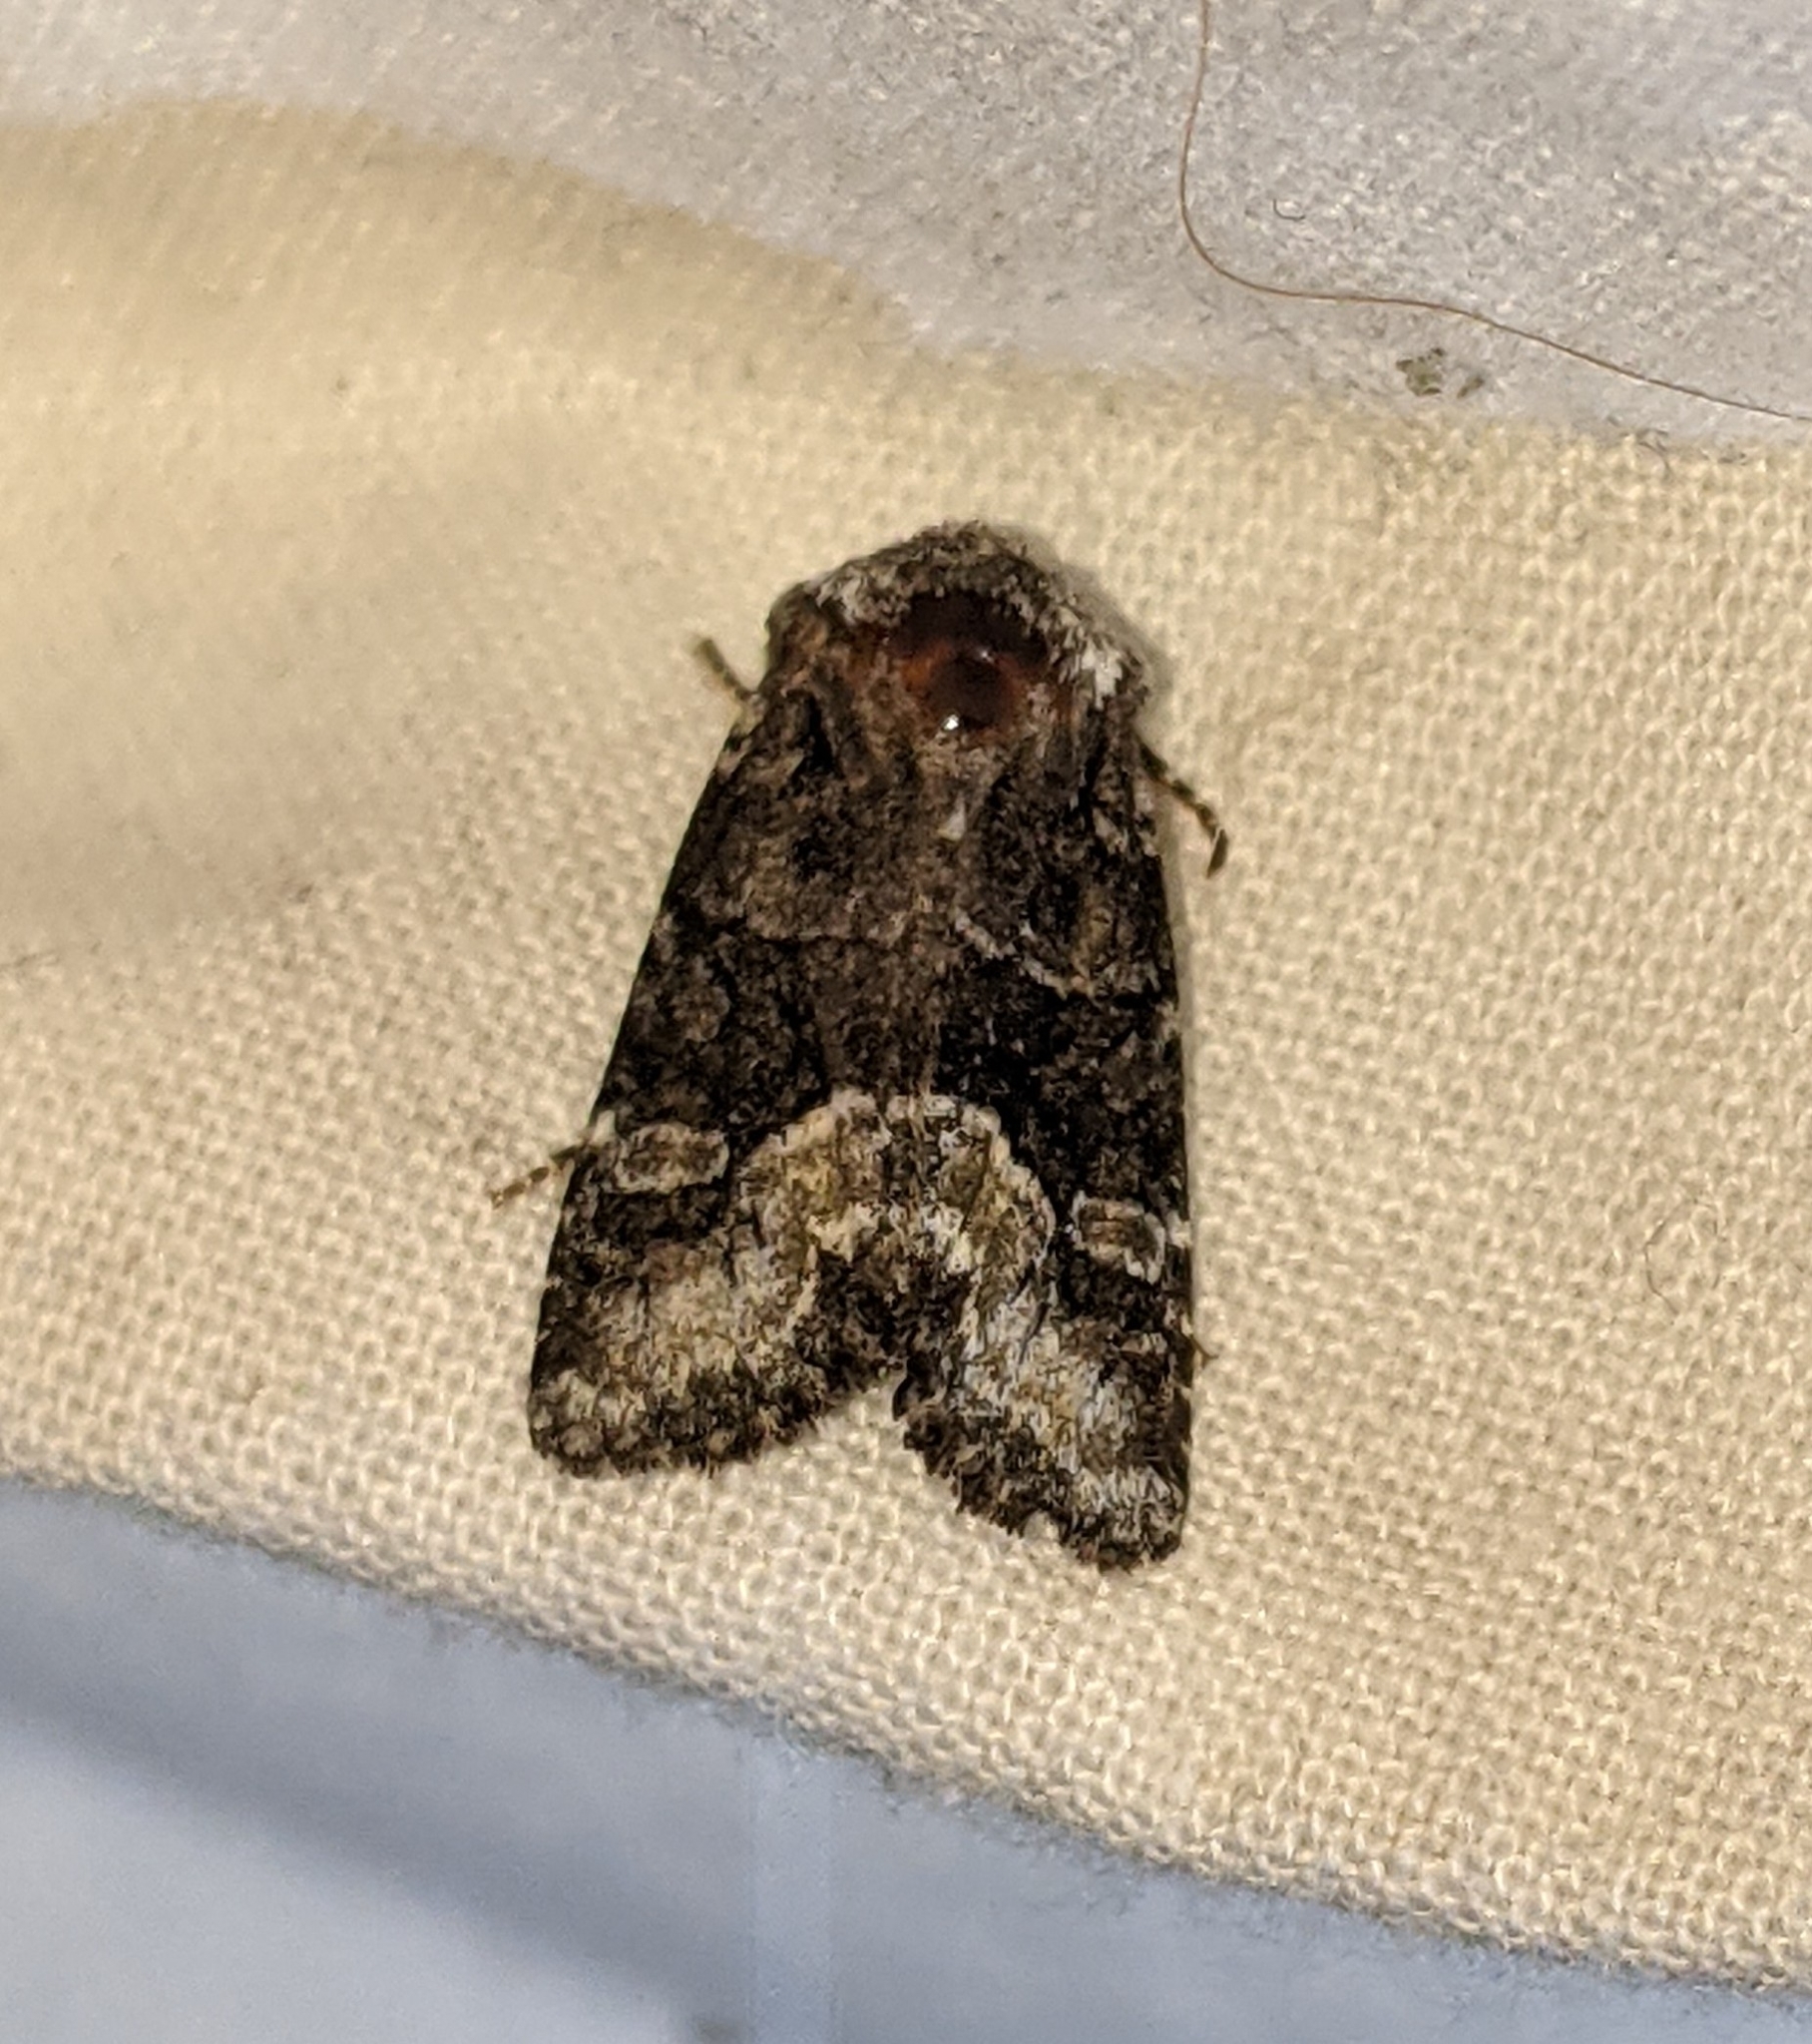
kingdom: Animalia
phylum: Arthropoda
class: Insecta
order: Lepidoptera
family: Noctuidae
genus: Lacinipolia
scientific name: Lacinipolia olivacea
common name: Olive arches moth
